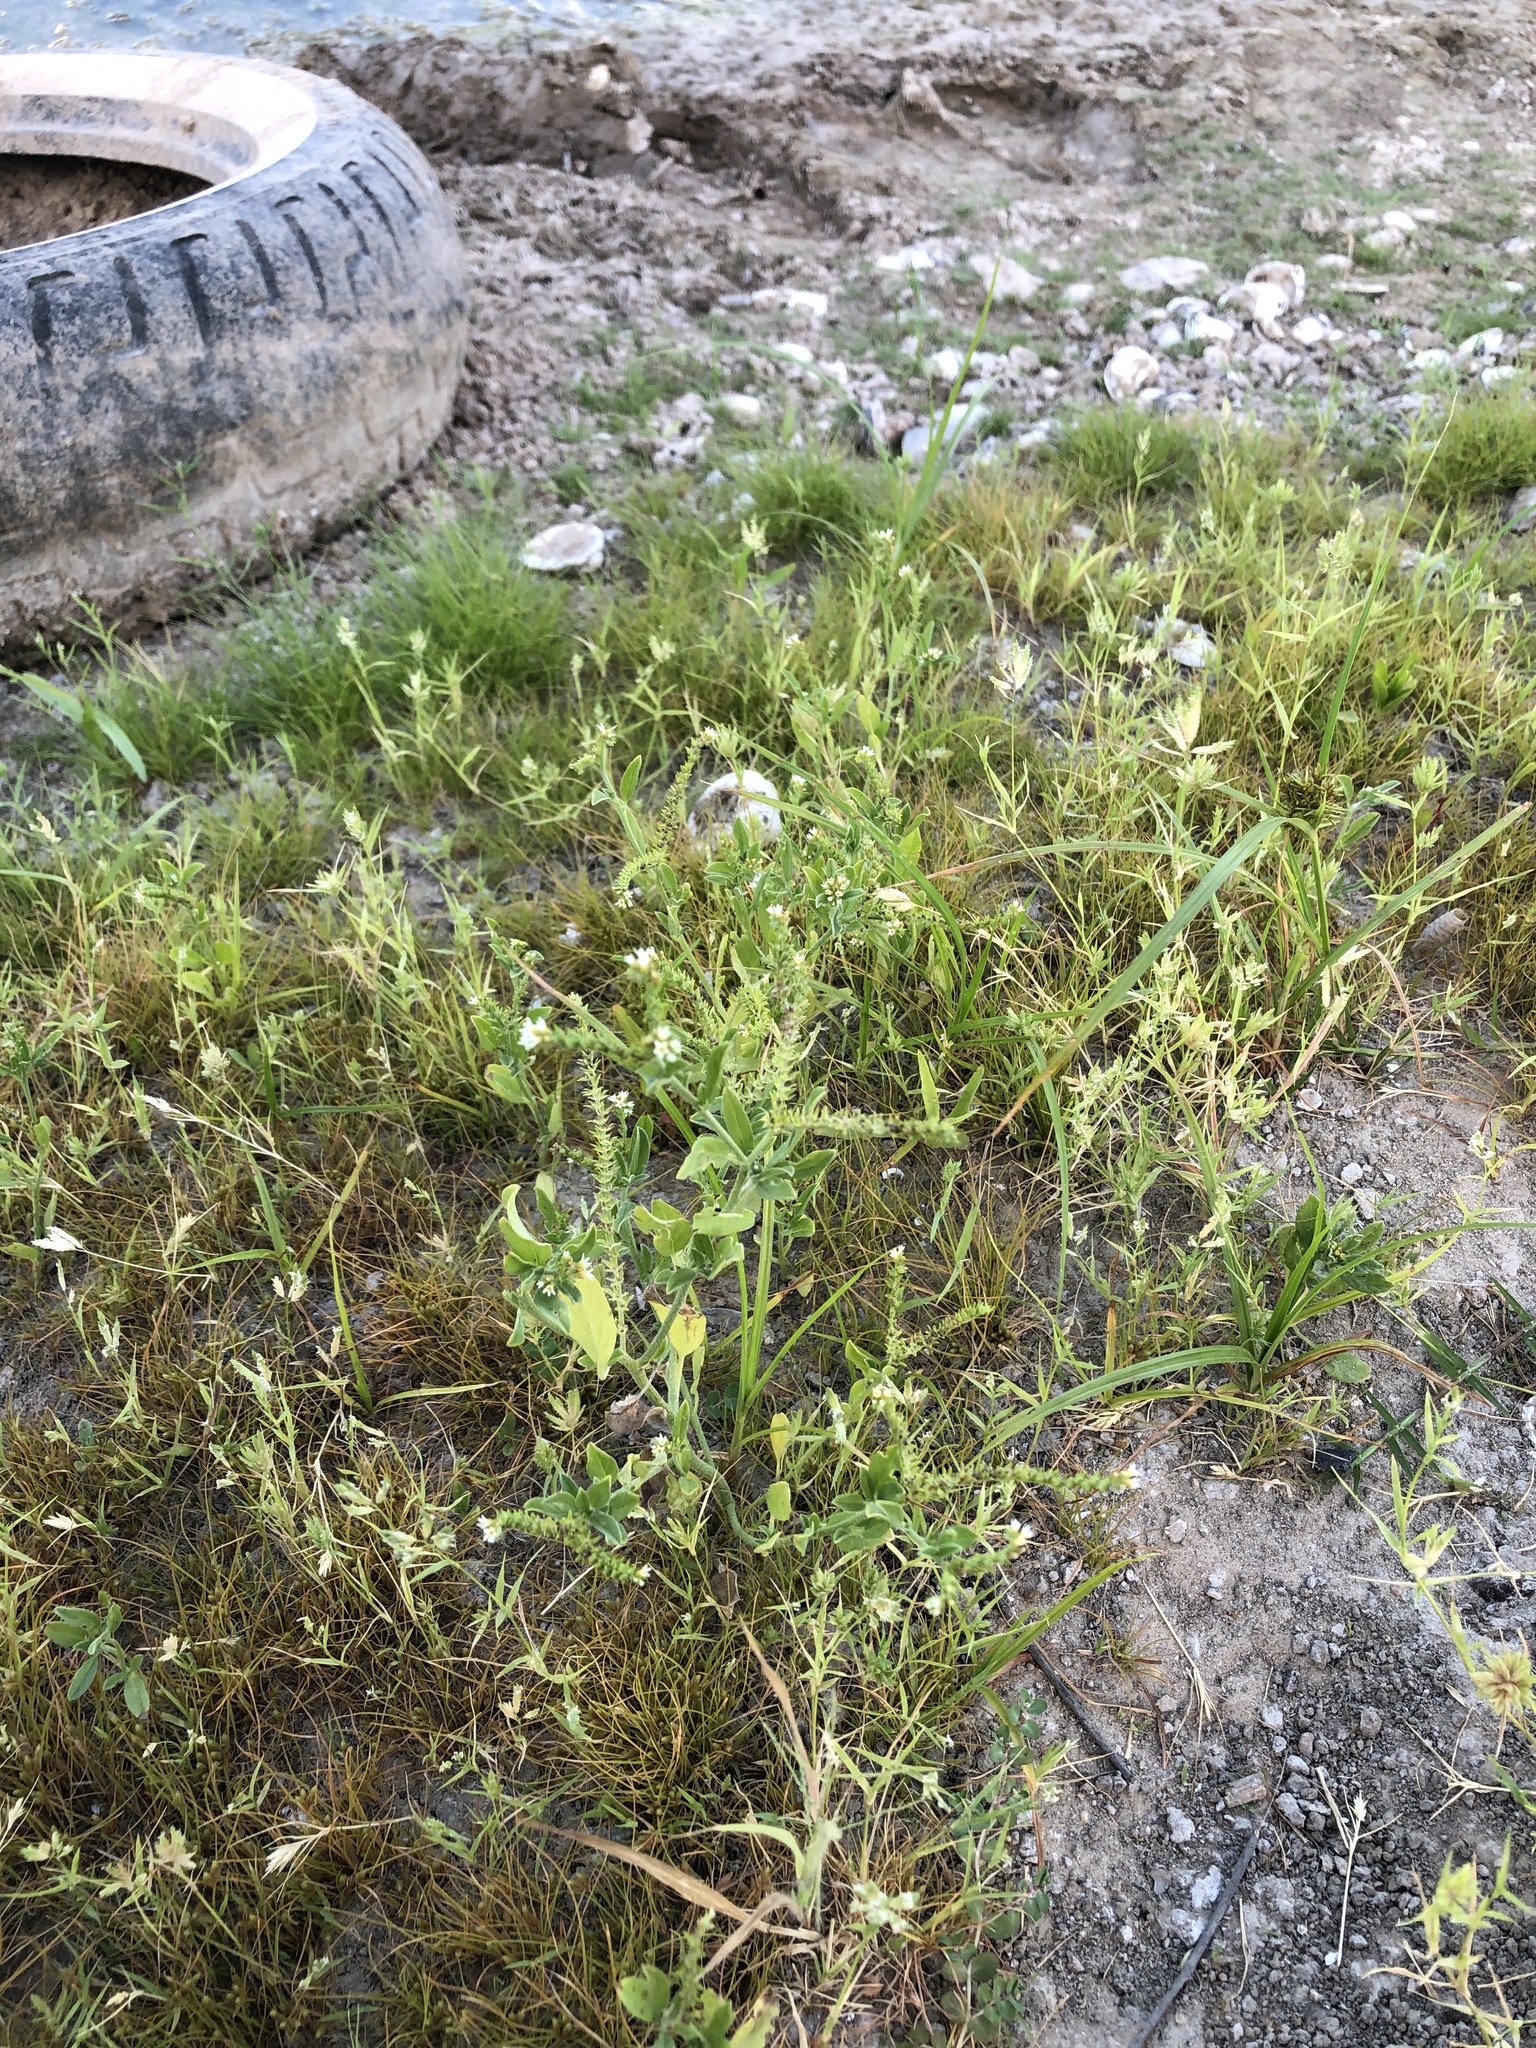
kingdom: Plantae
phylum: Tracheophyta
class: Magnoliopsida
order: Boraginales
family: Heliotropiaceae
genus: Euploca
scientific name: Euploca procumbens
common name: Fourspike heliotrope
